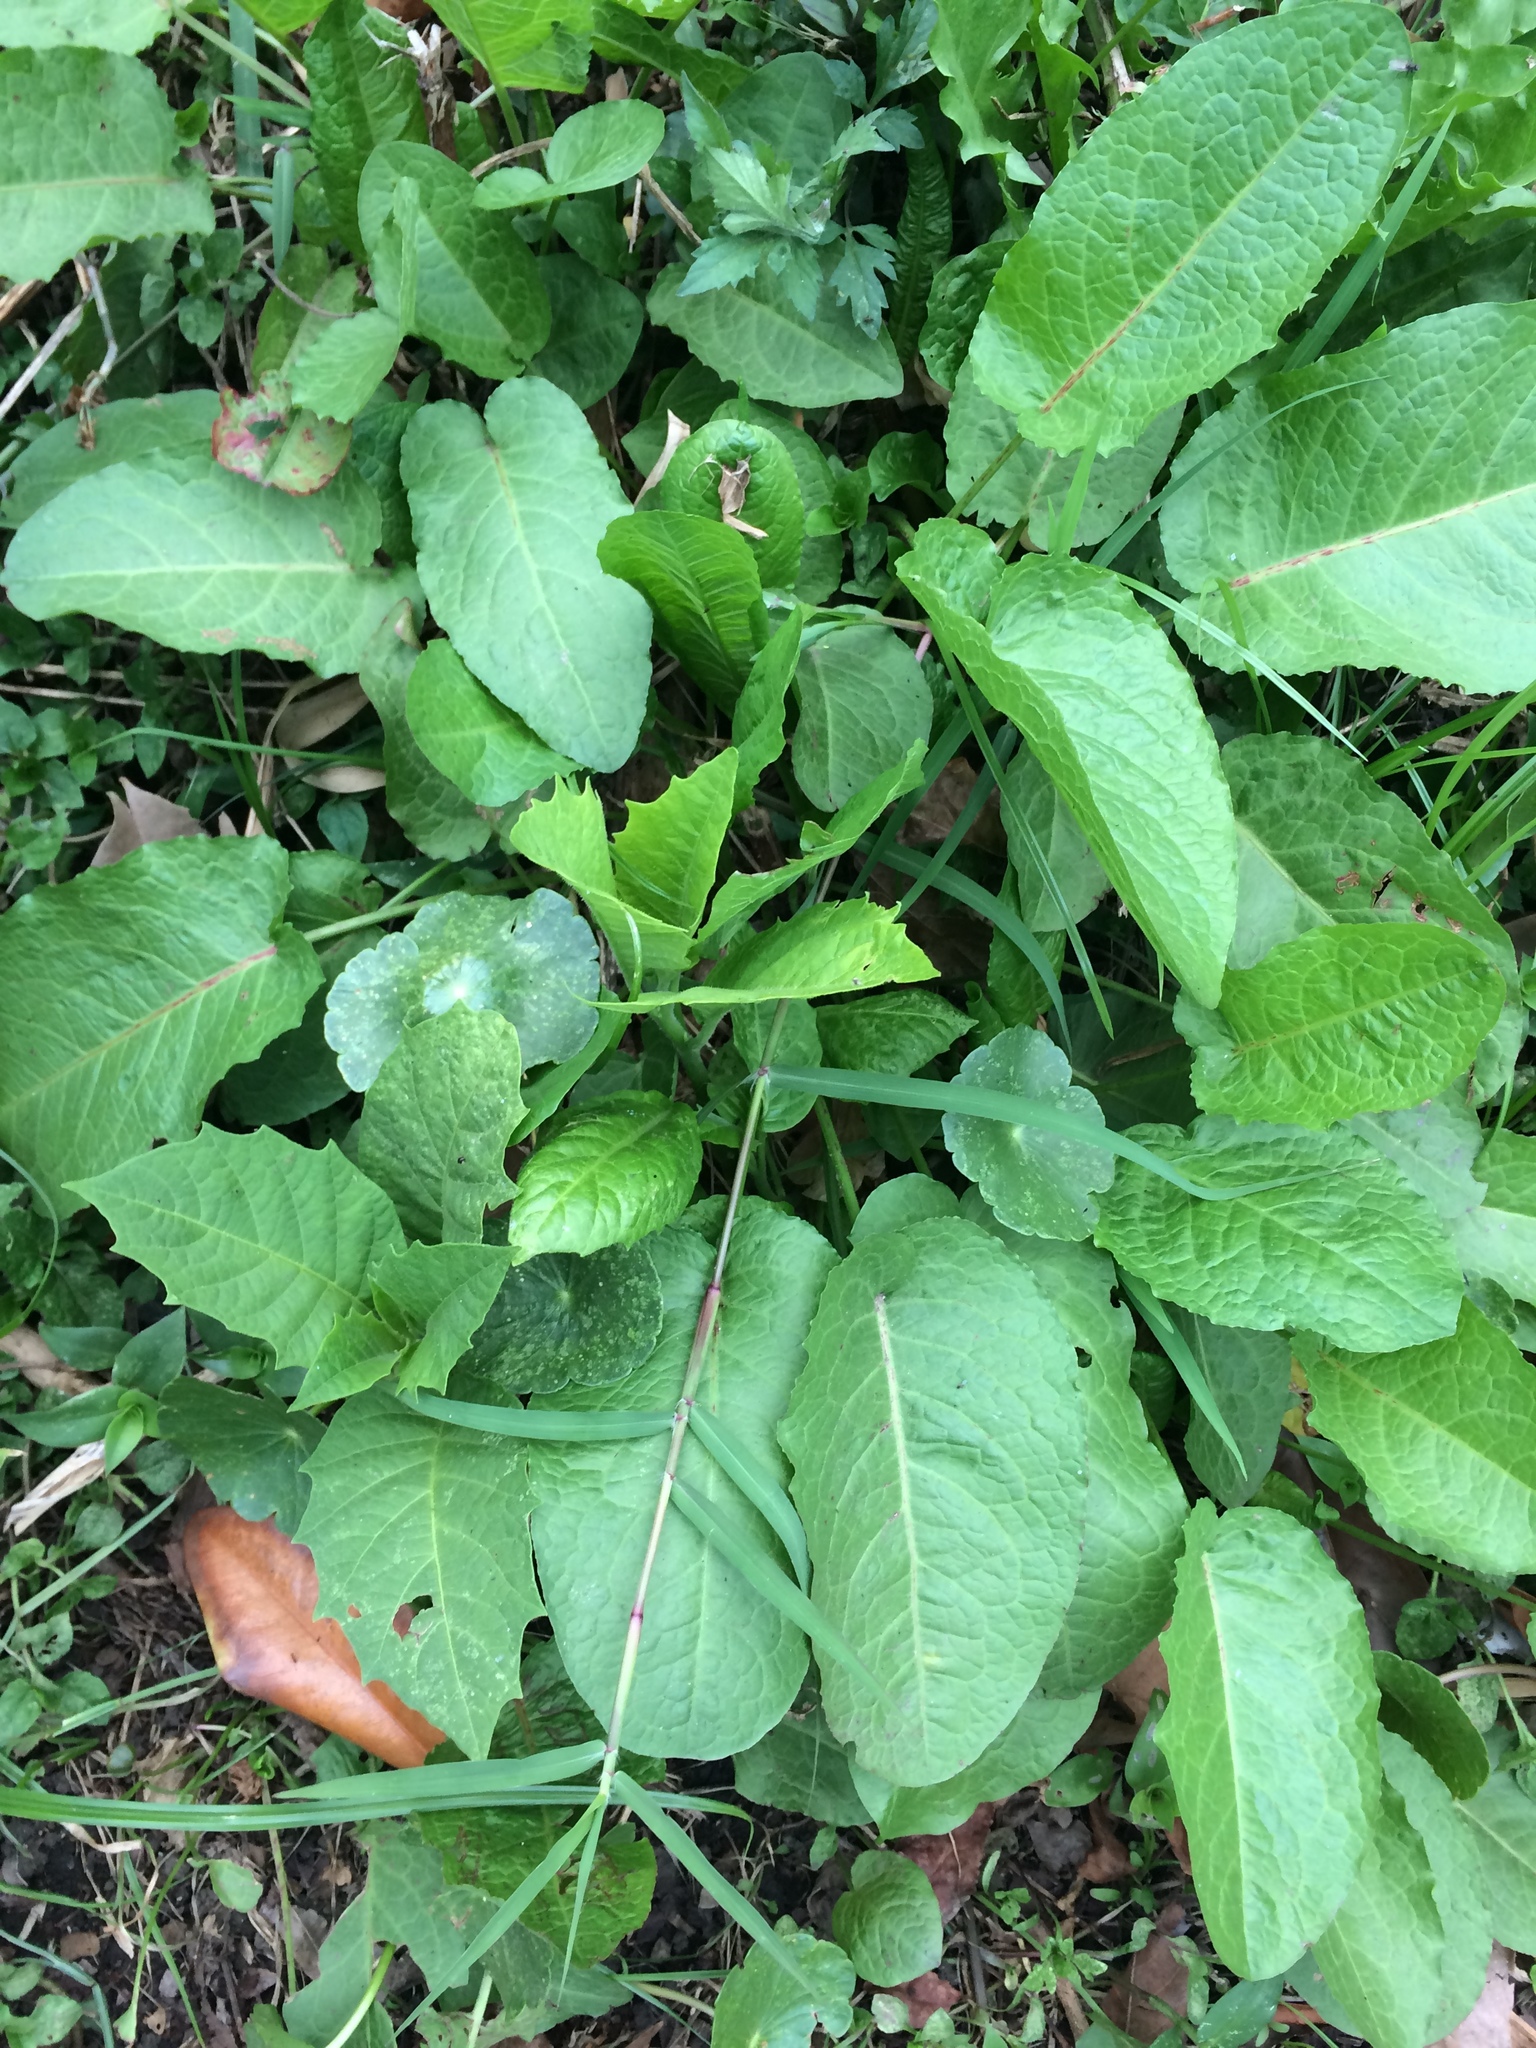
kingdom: Plantae
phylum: Tracheophyta
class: Magnoliopsida
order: Caryophyllales
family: Polygonaceae
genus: Rumex
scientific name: Rumex obtusifolius
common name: Bitter dock
